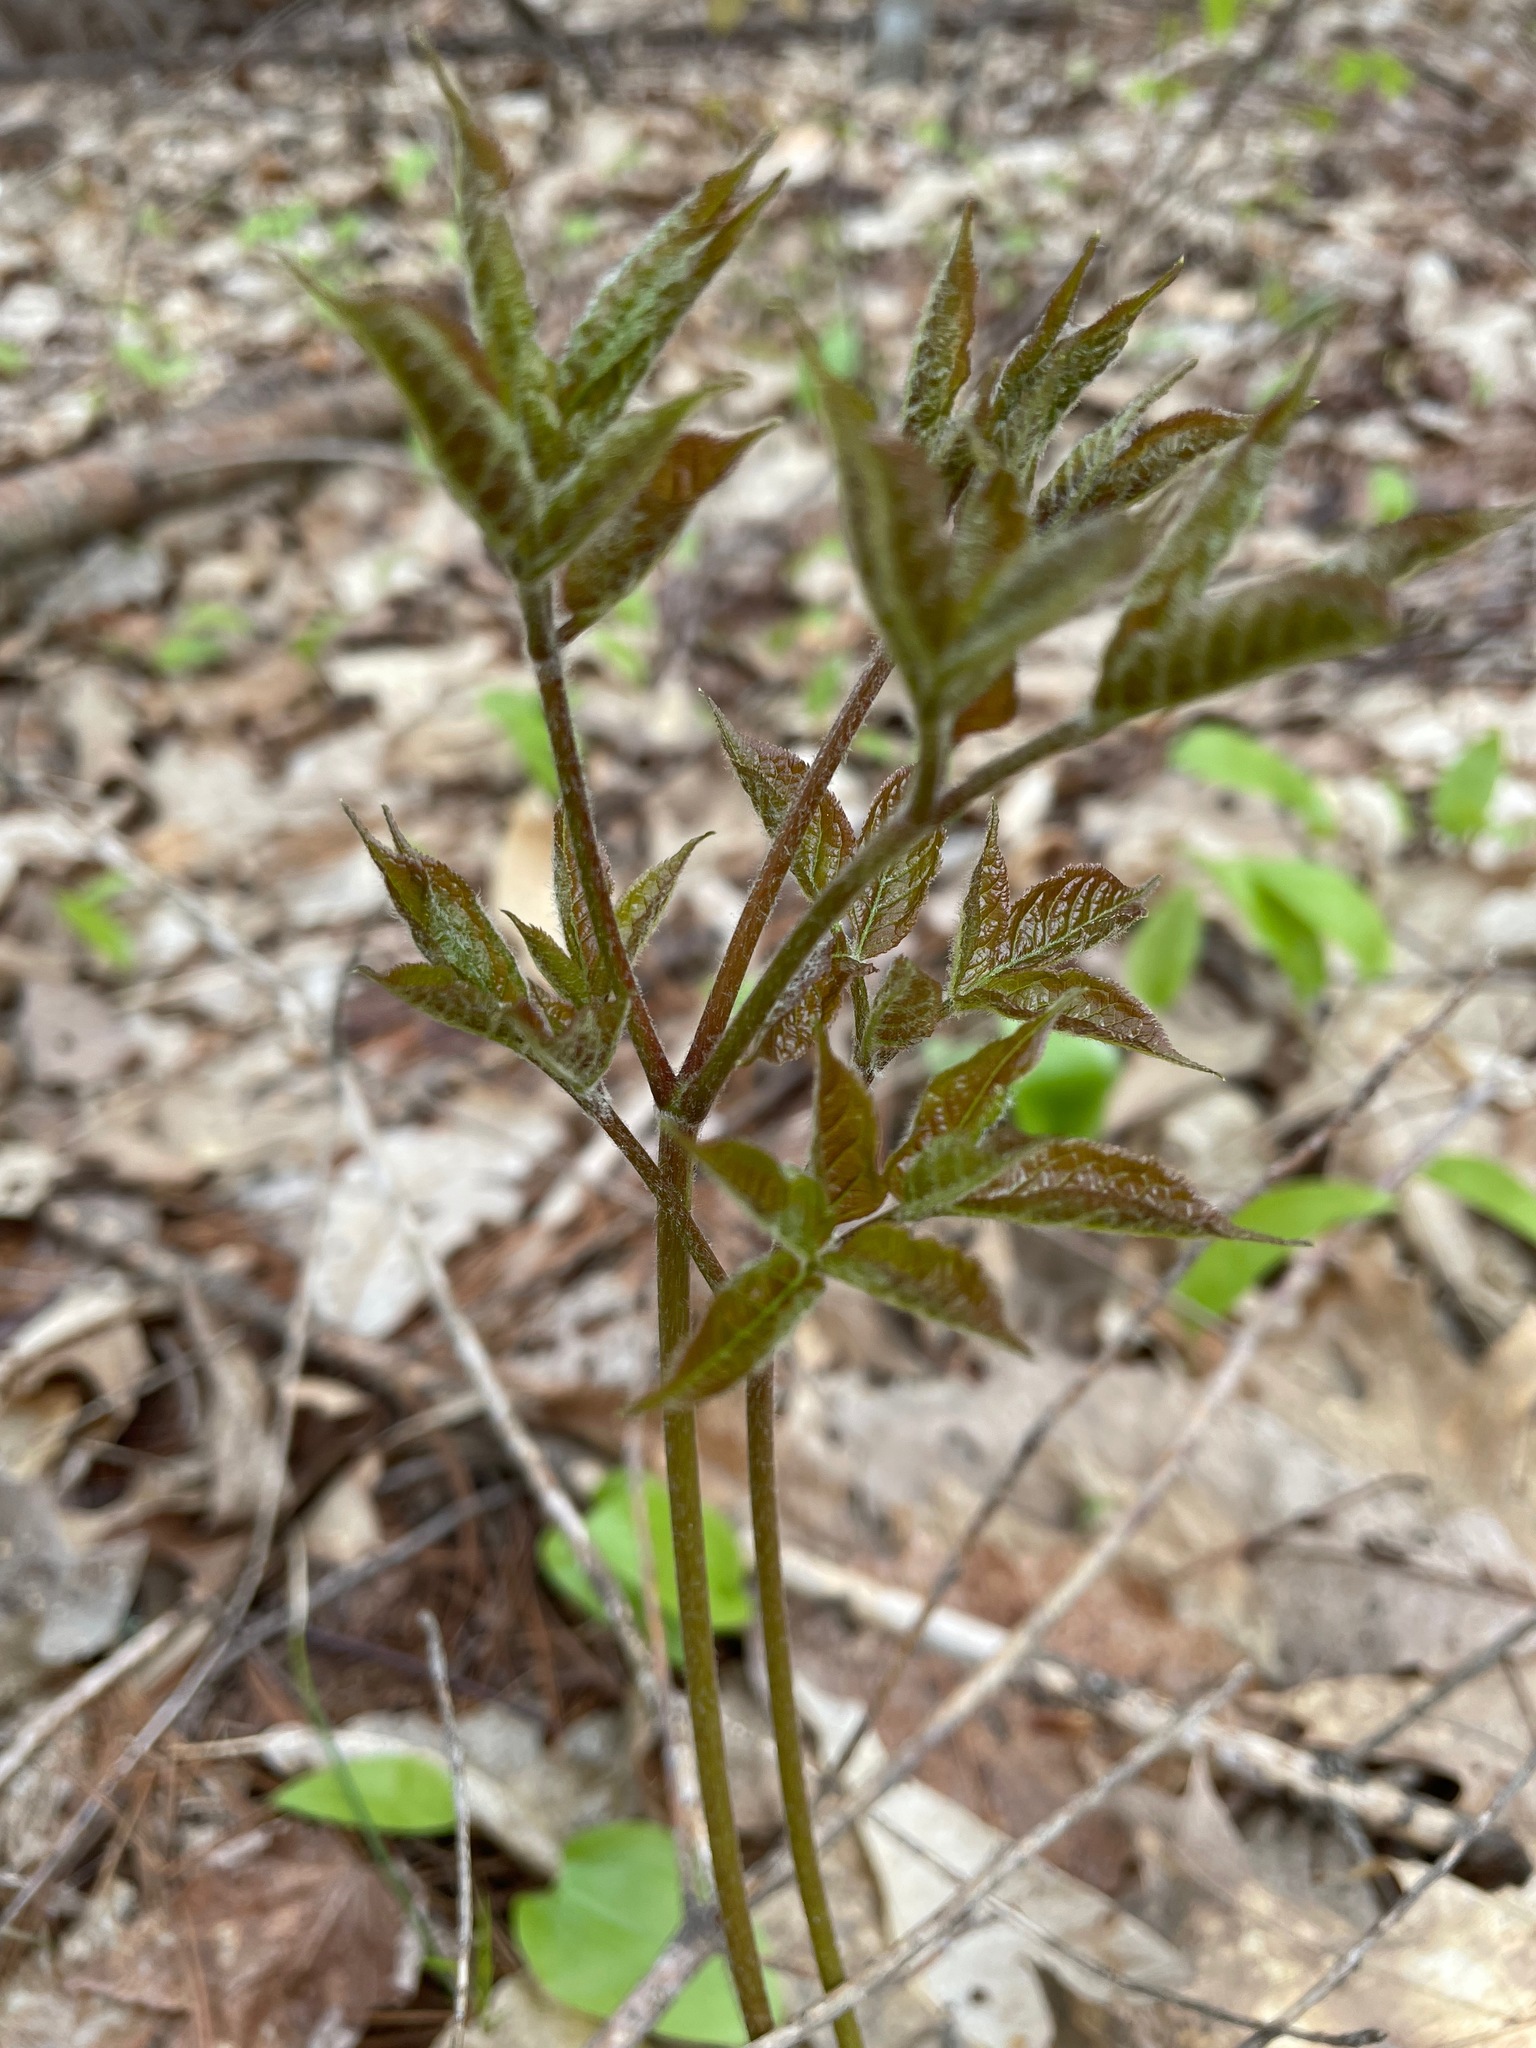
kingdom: Plantae
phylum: Tracheophyta
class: Magnoliopsida
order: Apiales
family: Araliaceae
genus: Aralia
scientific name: Aralia nudicaulis
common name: Wild sarsaparilla
